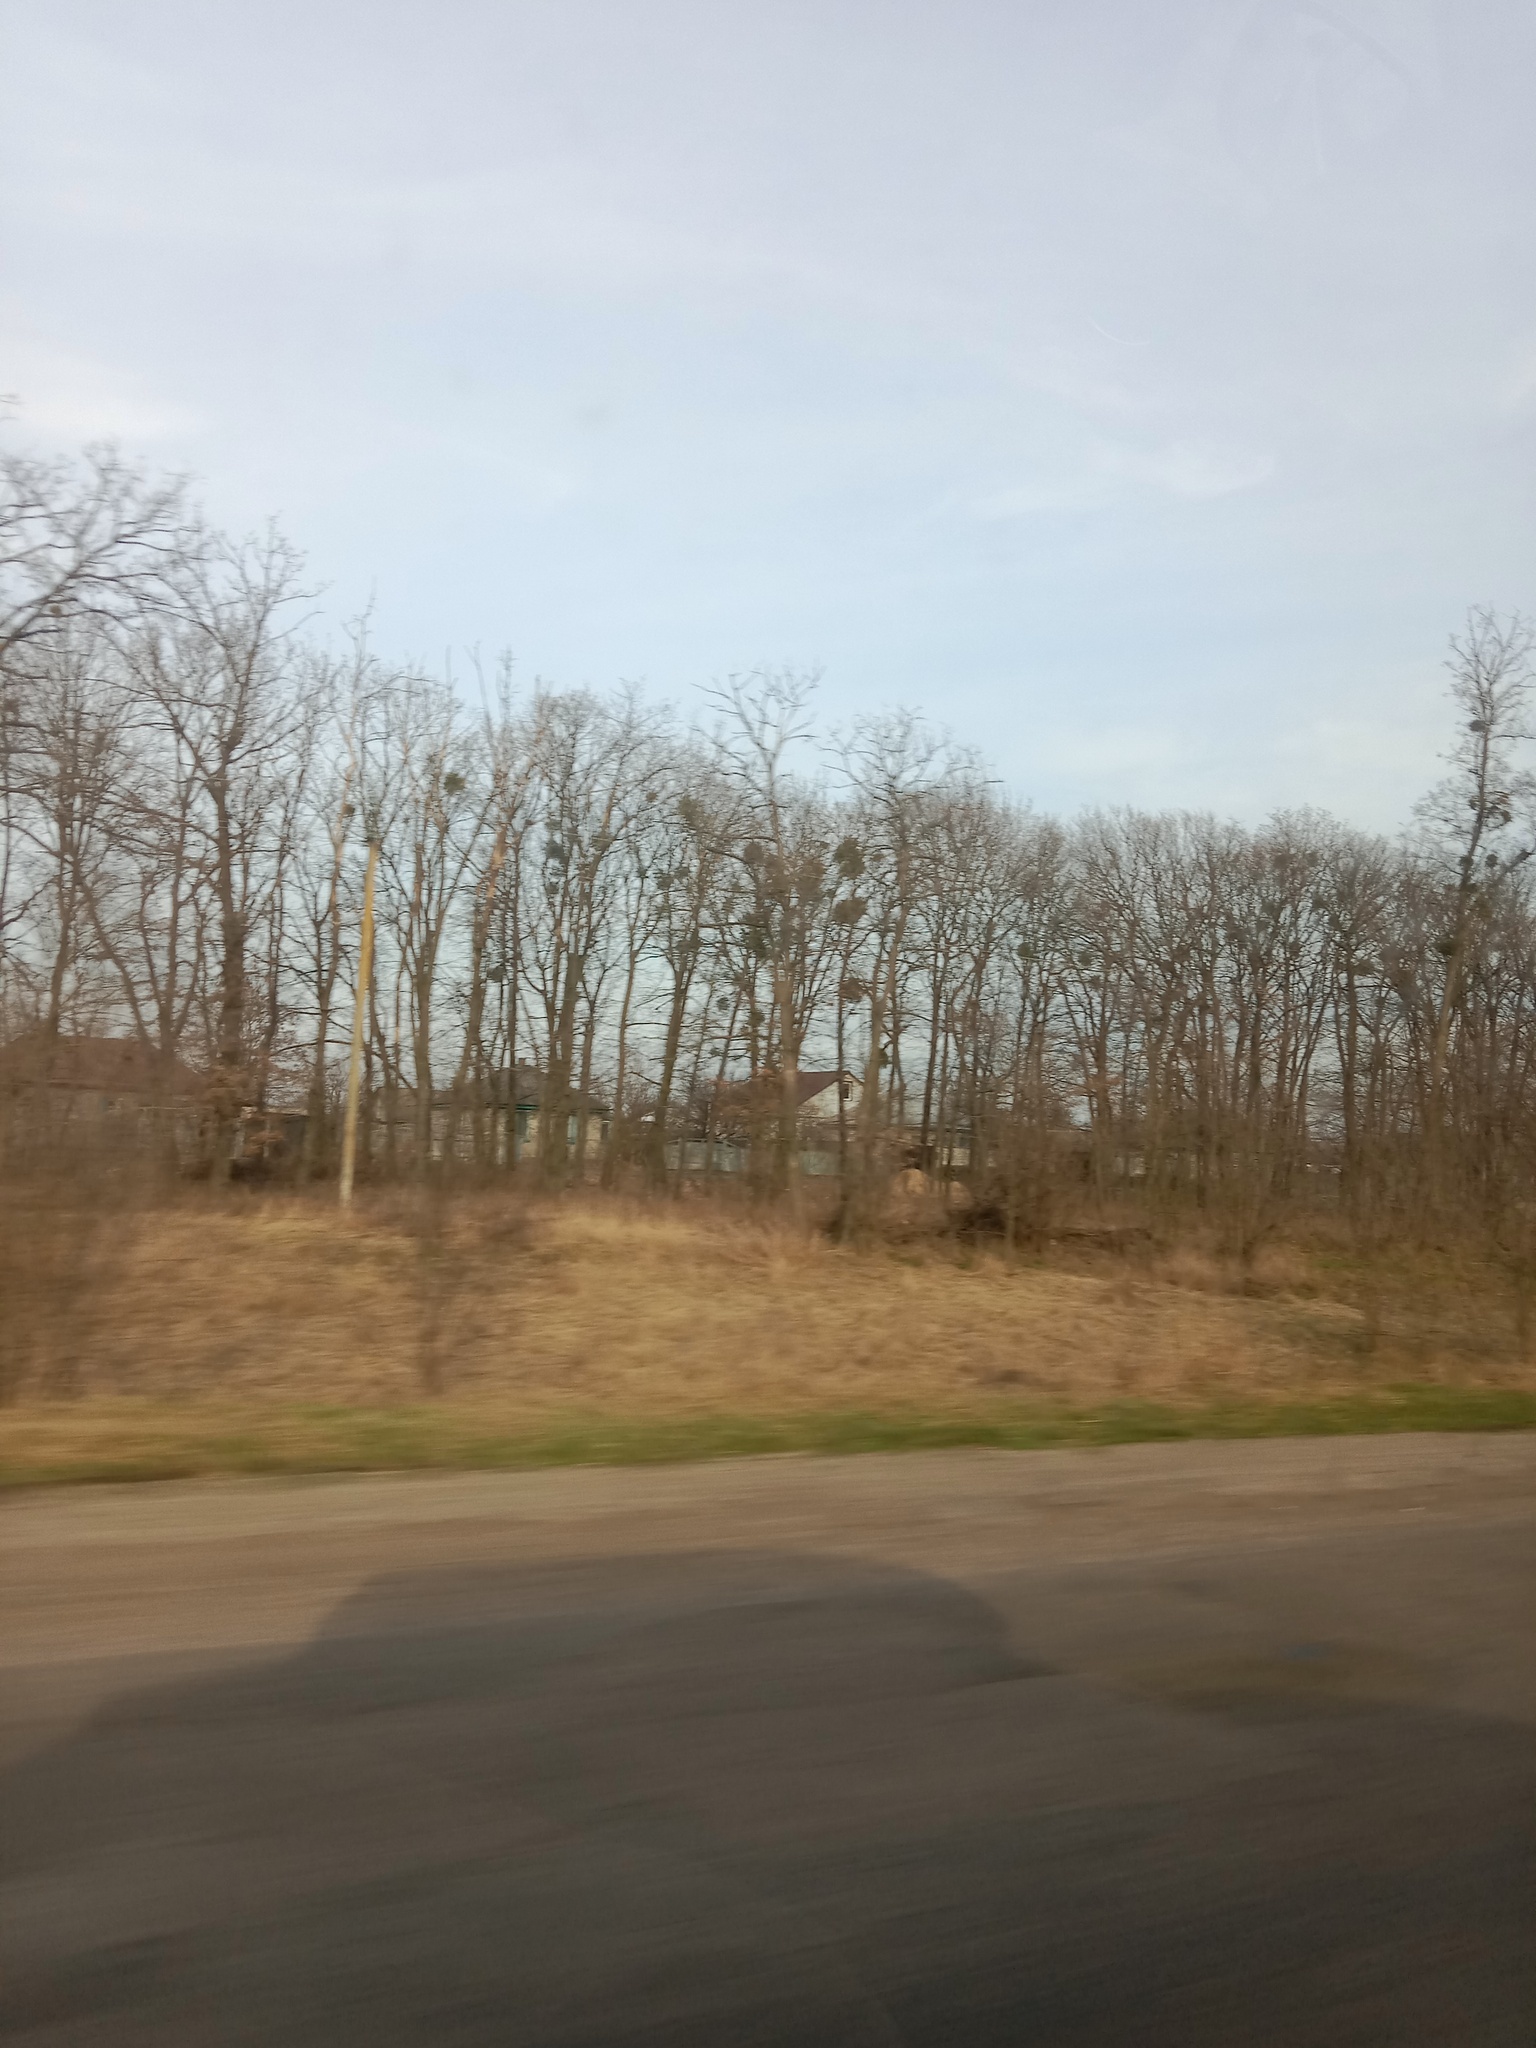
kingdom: Plantae
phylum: Tracheophyta
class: Magnoliopsida
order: Santalales
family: Viscaceae
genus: Viscum
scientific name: Viscum album
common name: Mistletoe
